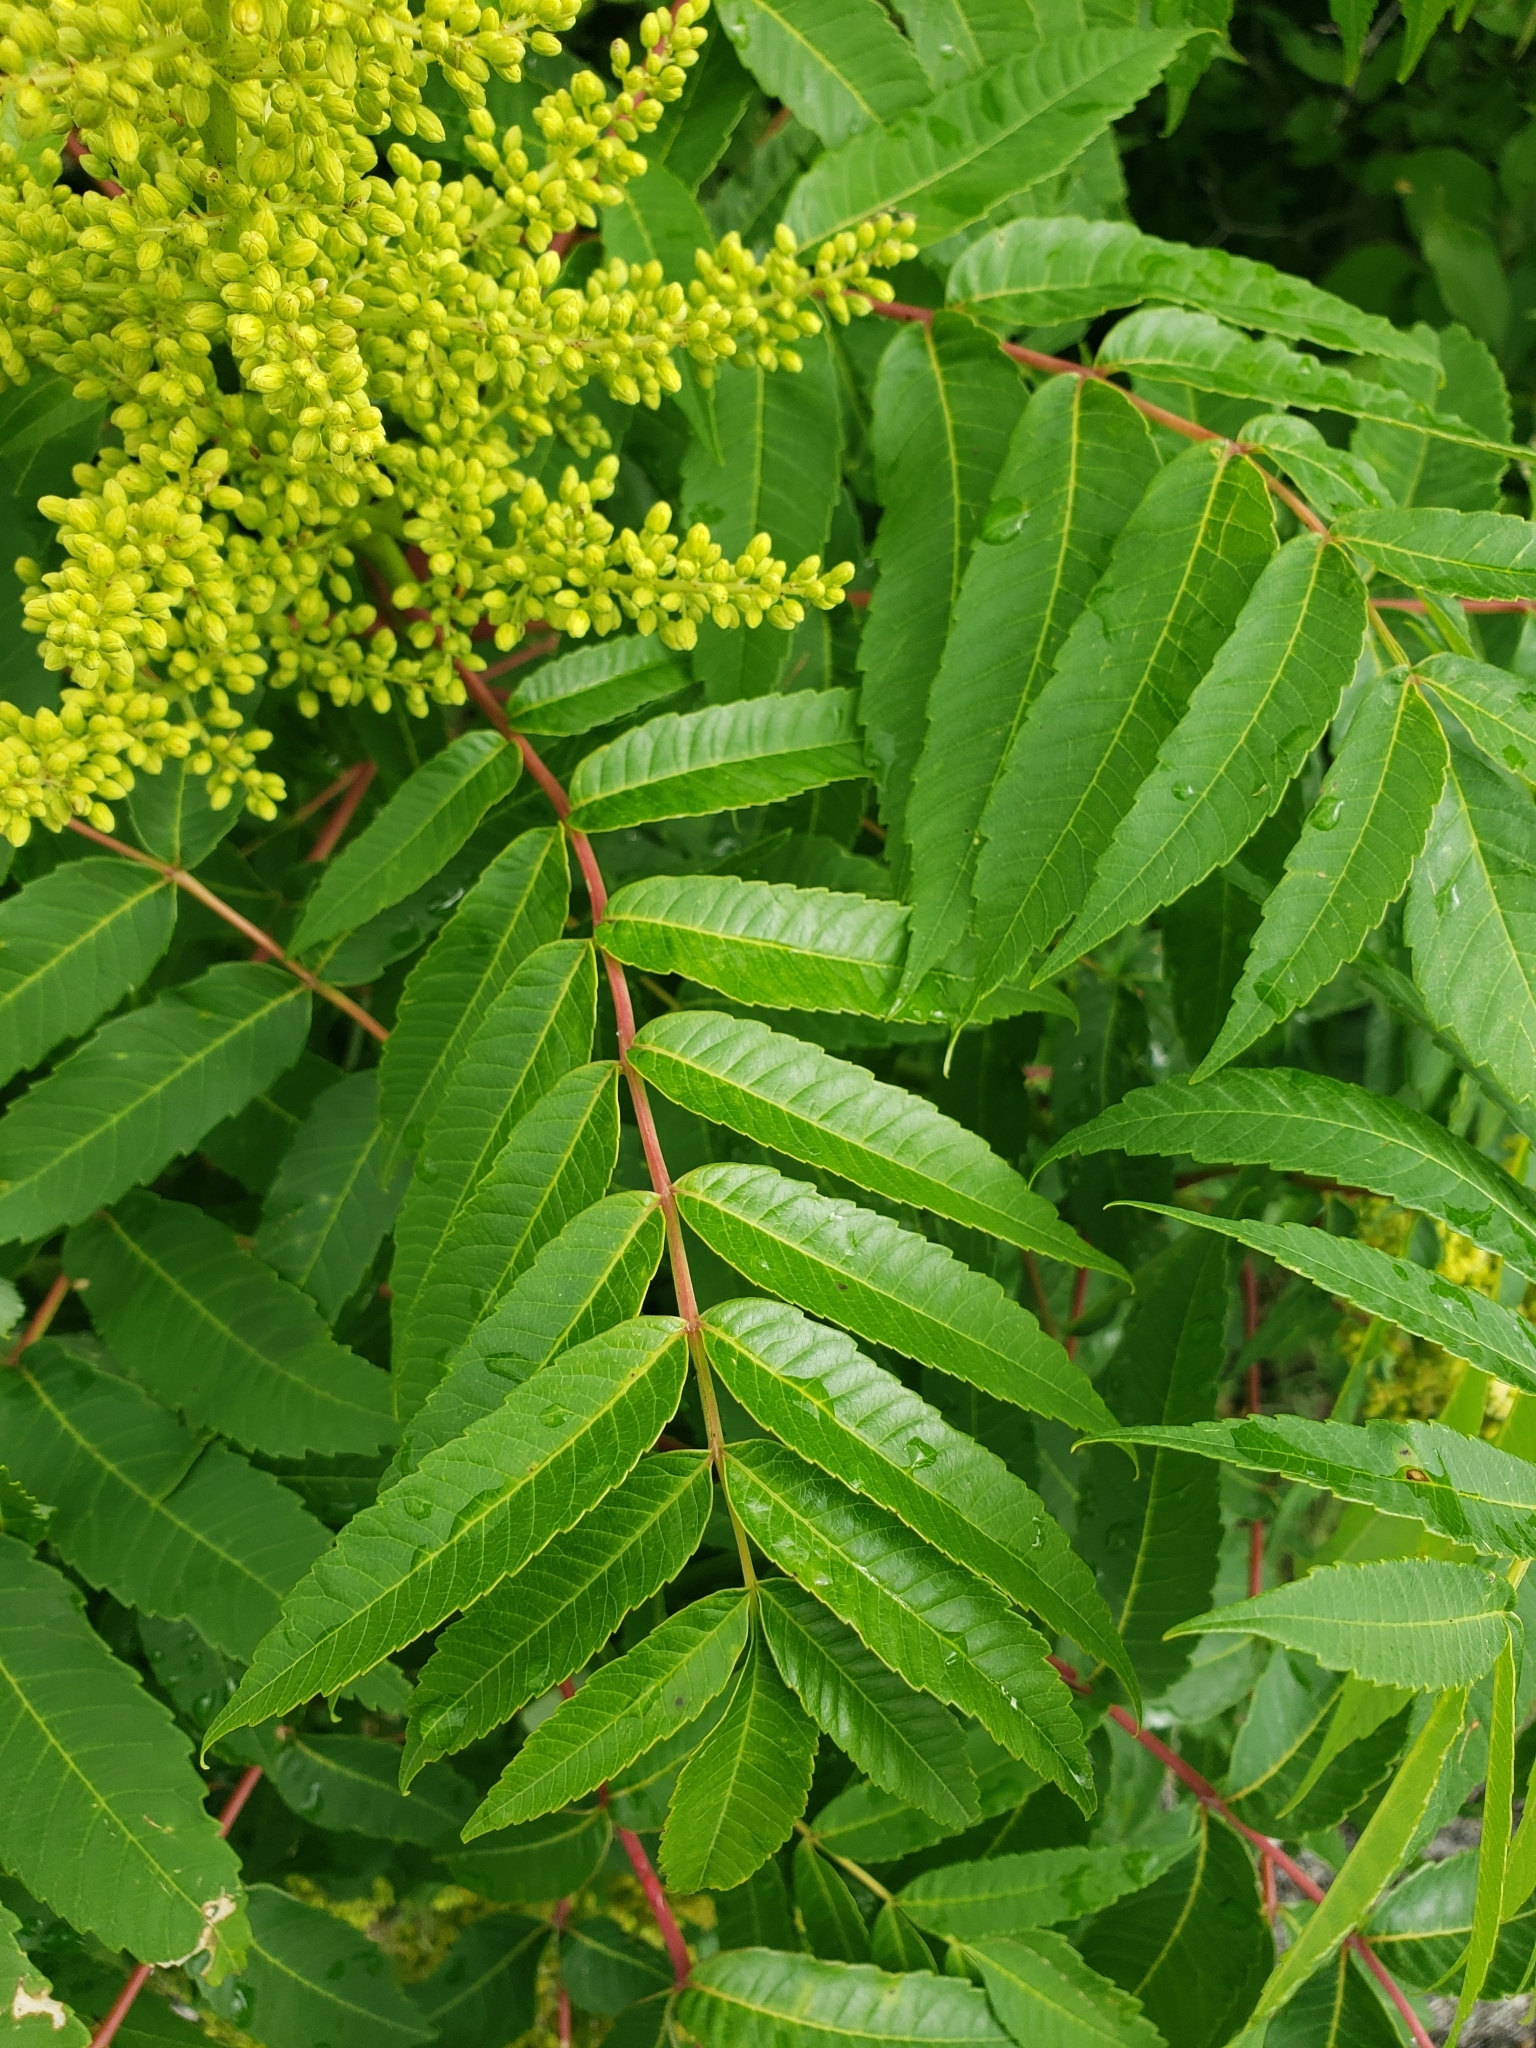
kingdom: Plantae
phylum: Tracheophyta
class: Magnoliopsida
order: Sapindales
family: Anacardiaceae
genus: Rhus
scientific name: Rhus glabra
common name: Scarlet sumac
